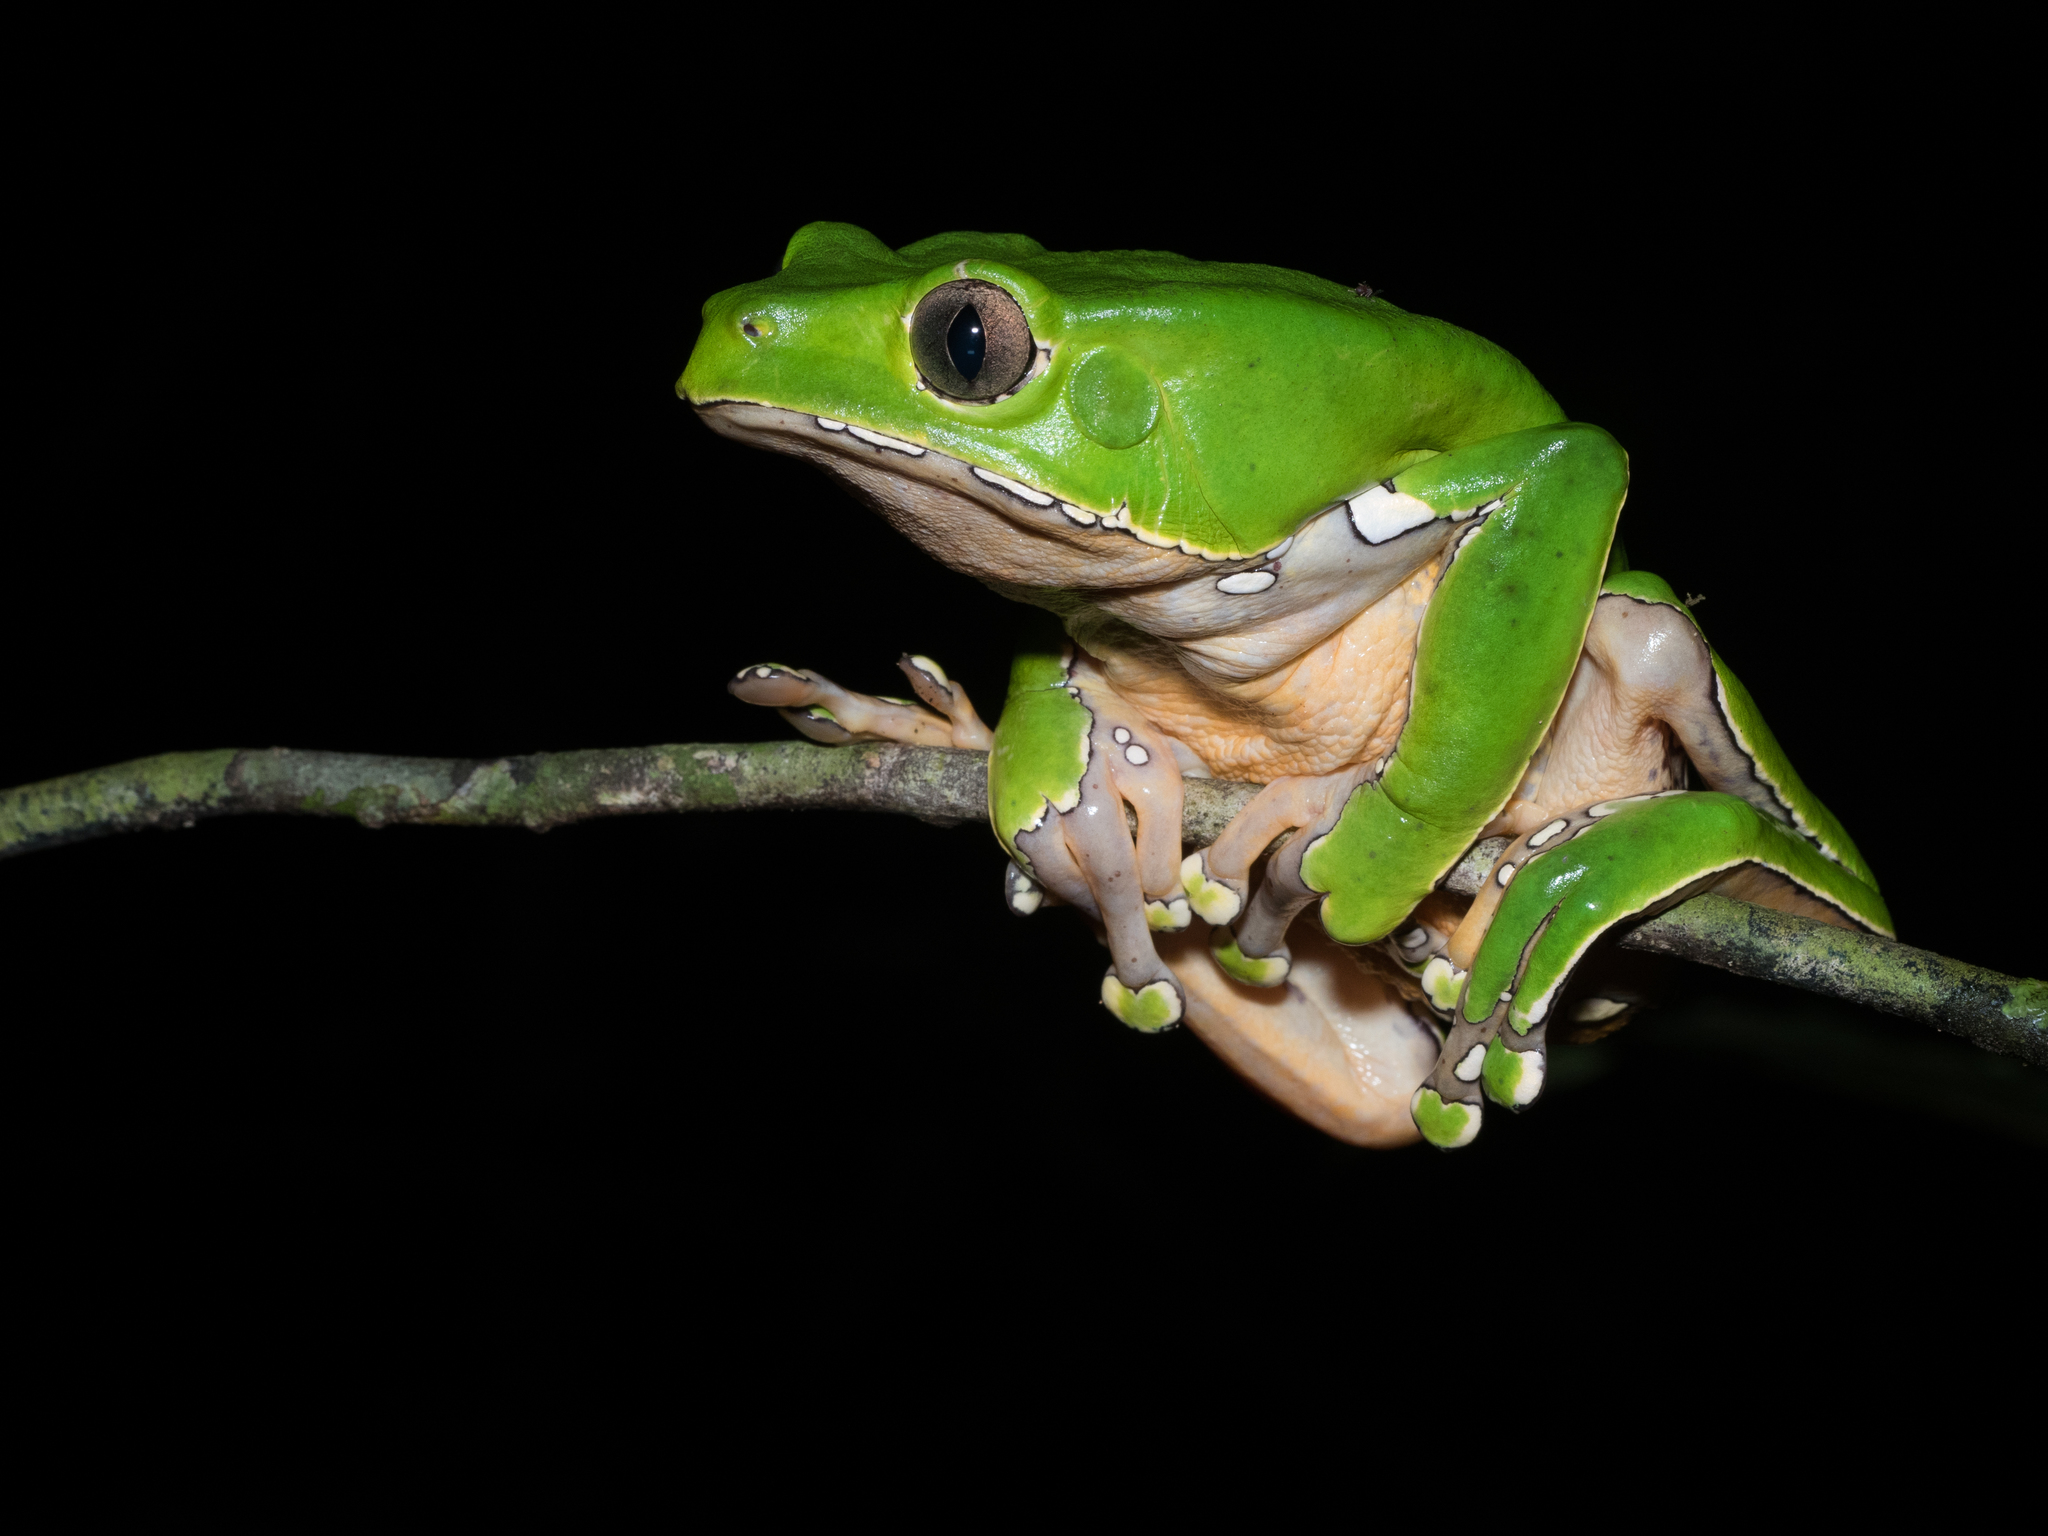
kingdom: Animalia
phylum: Chordata
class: Amphibia
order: Anura
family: Phyllomedusidae
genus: Phyllomedusa
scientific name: Phyllomedusa bicolor
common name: Giant monkey frog
